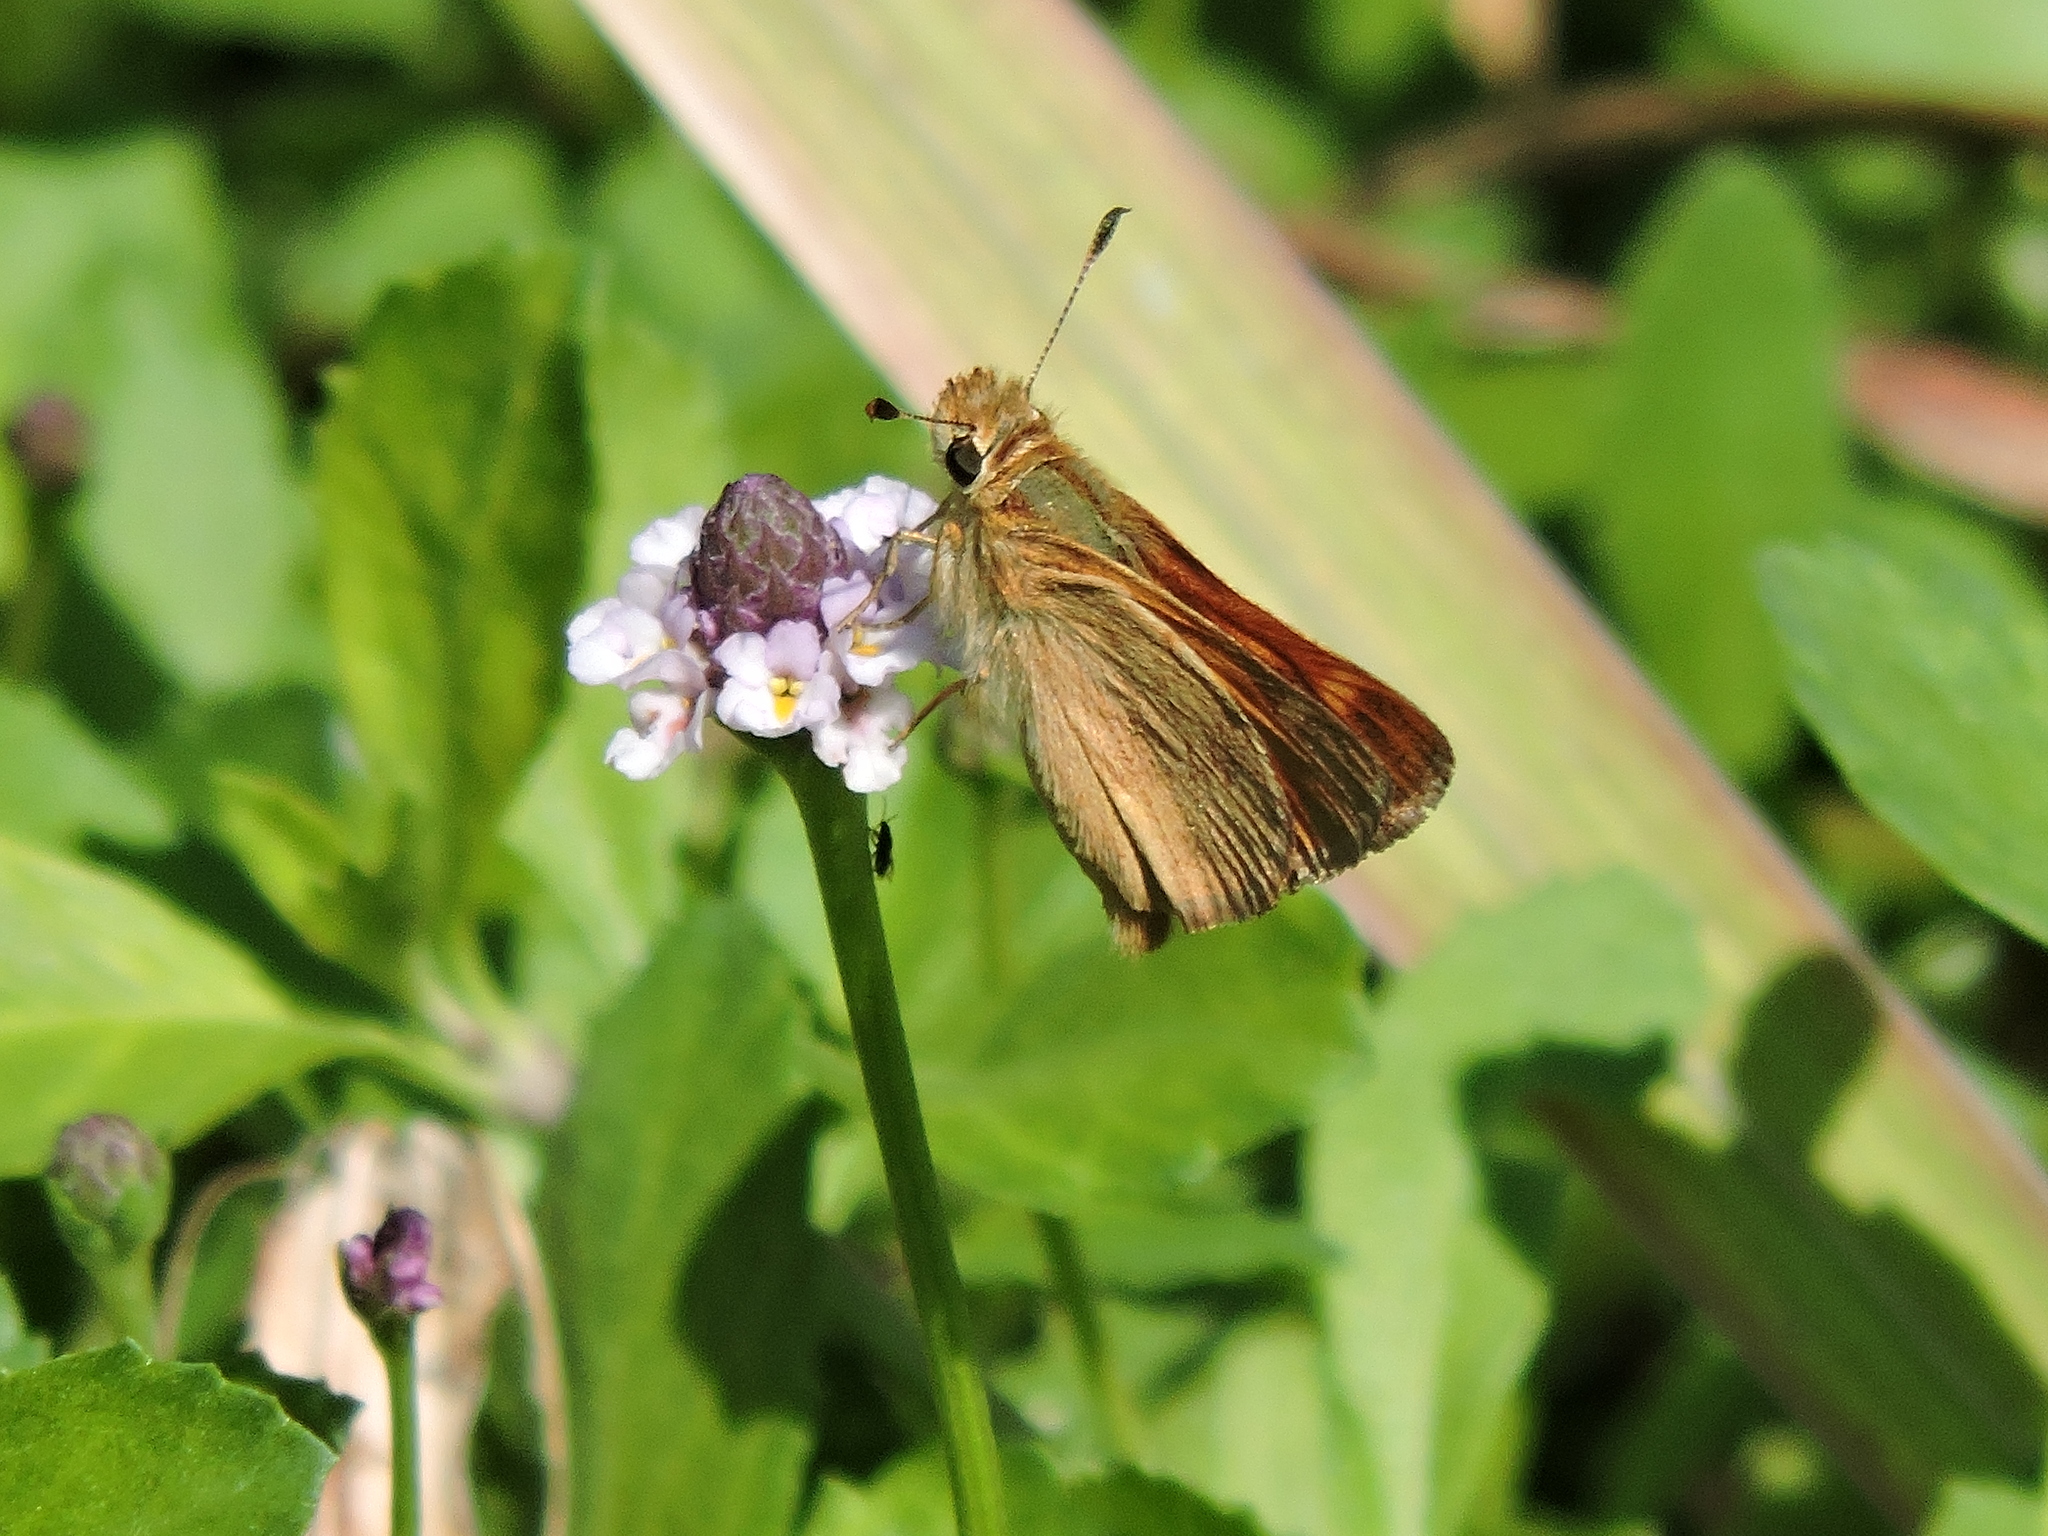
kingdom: Animalia
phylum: Arthropoda
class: Insecta
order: Lepidoptera
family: Hesperiidae
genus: Ochlodes
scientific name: Ochlodes sylvanoides
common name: Woodland skipper
